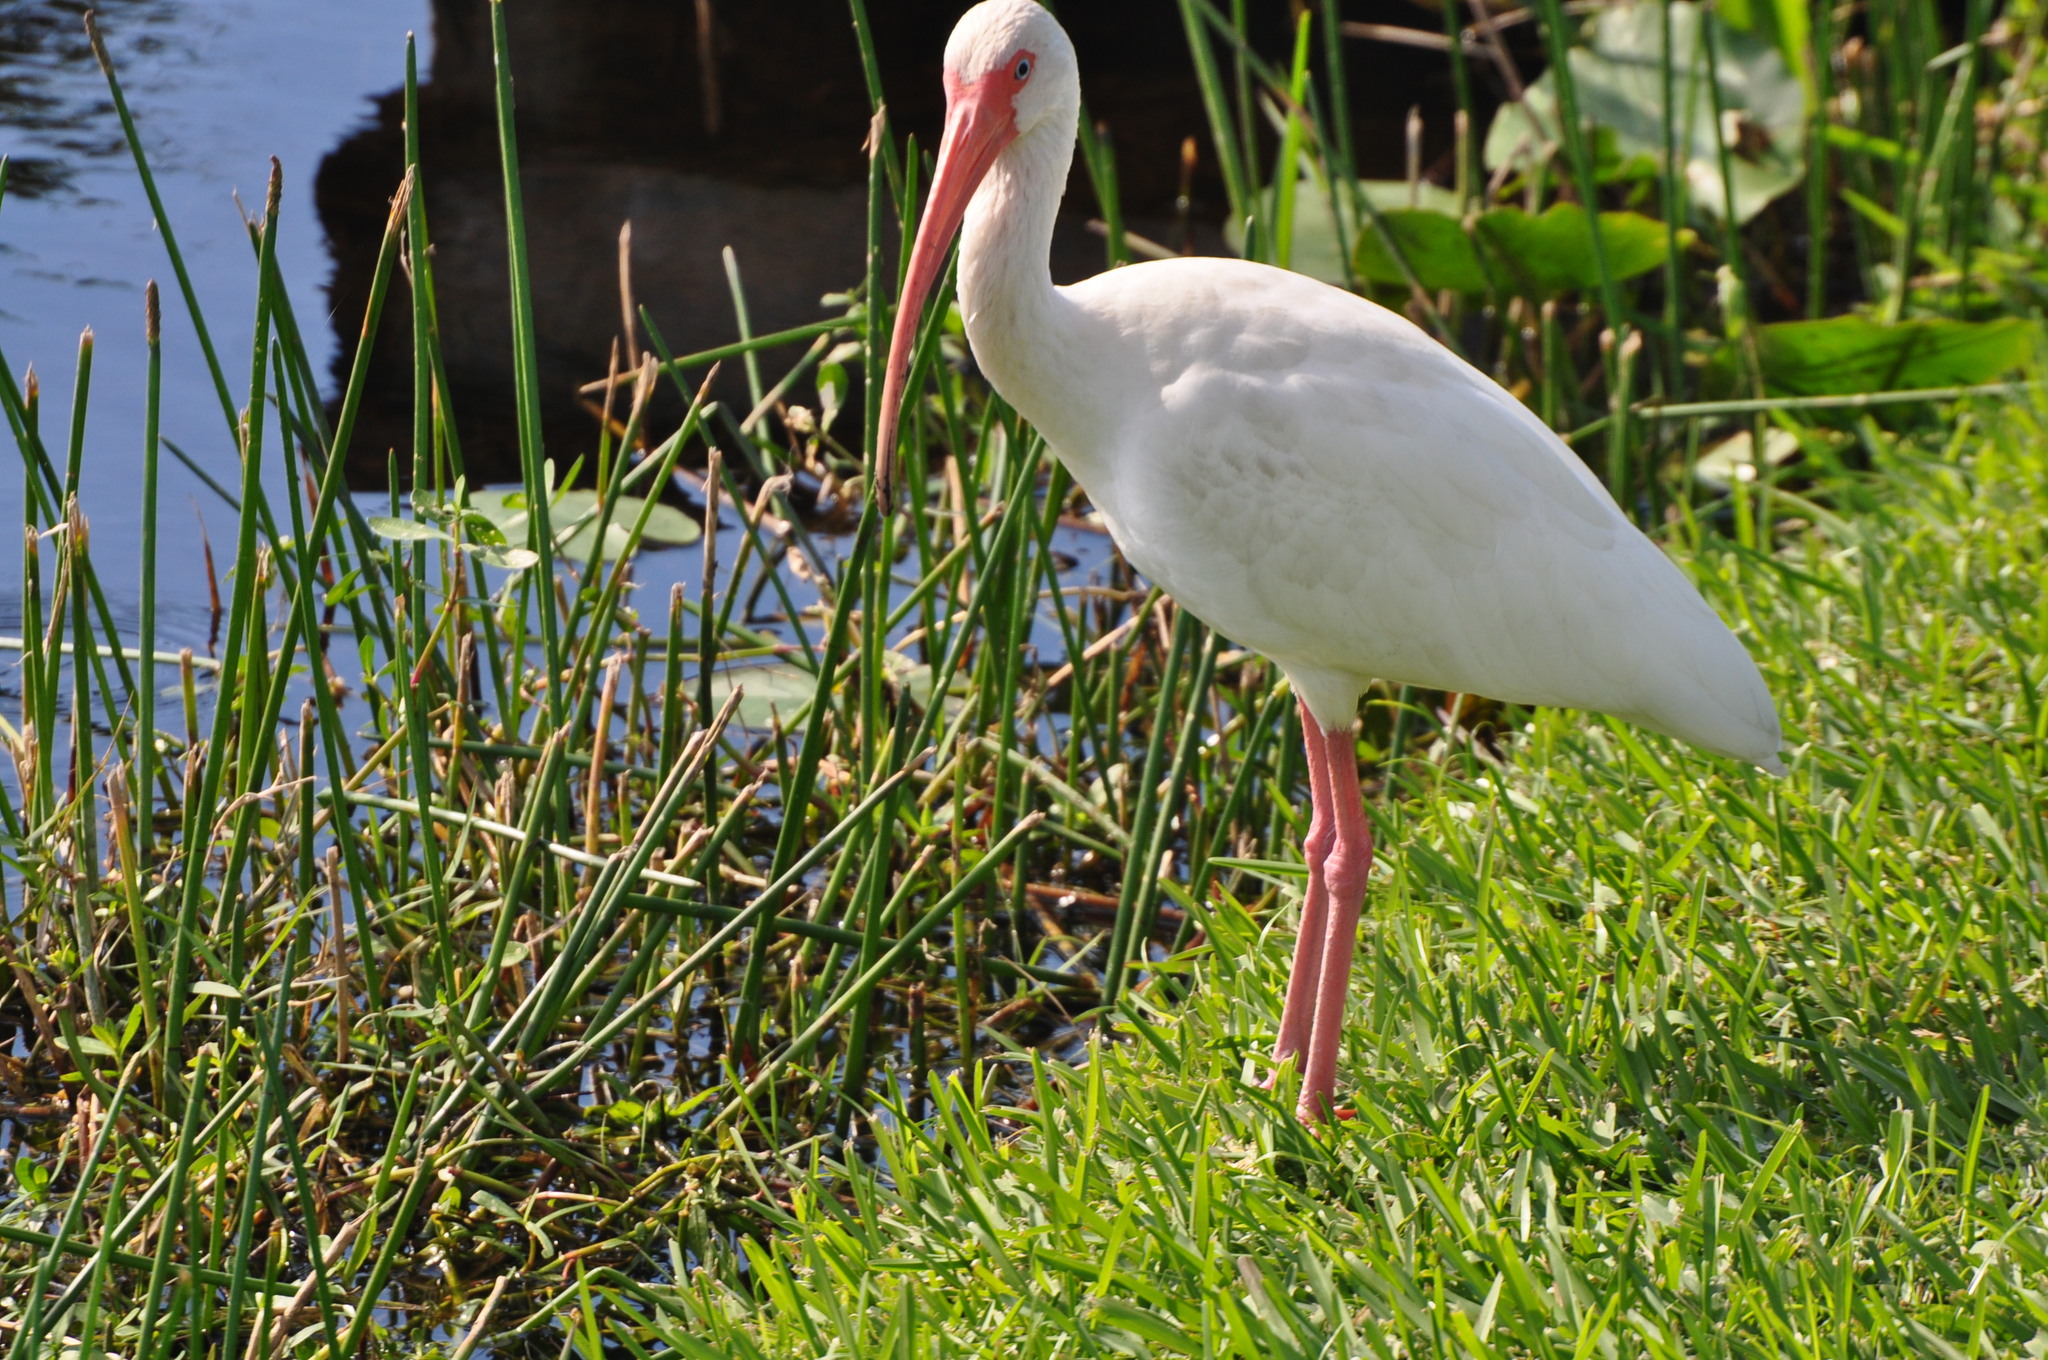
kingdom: Animalia
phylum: Chordata
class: Aves
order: Pelecaniformes
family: Threskiornithidae
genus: Eudocimus
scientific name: Eudocimus albus
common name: White ibis
